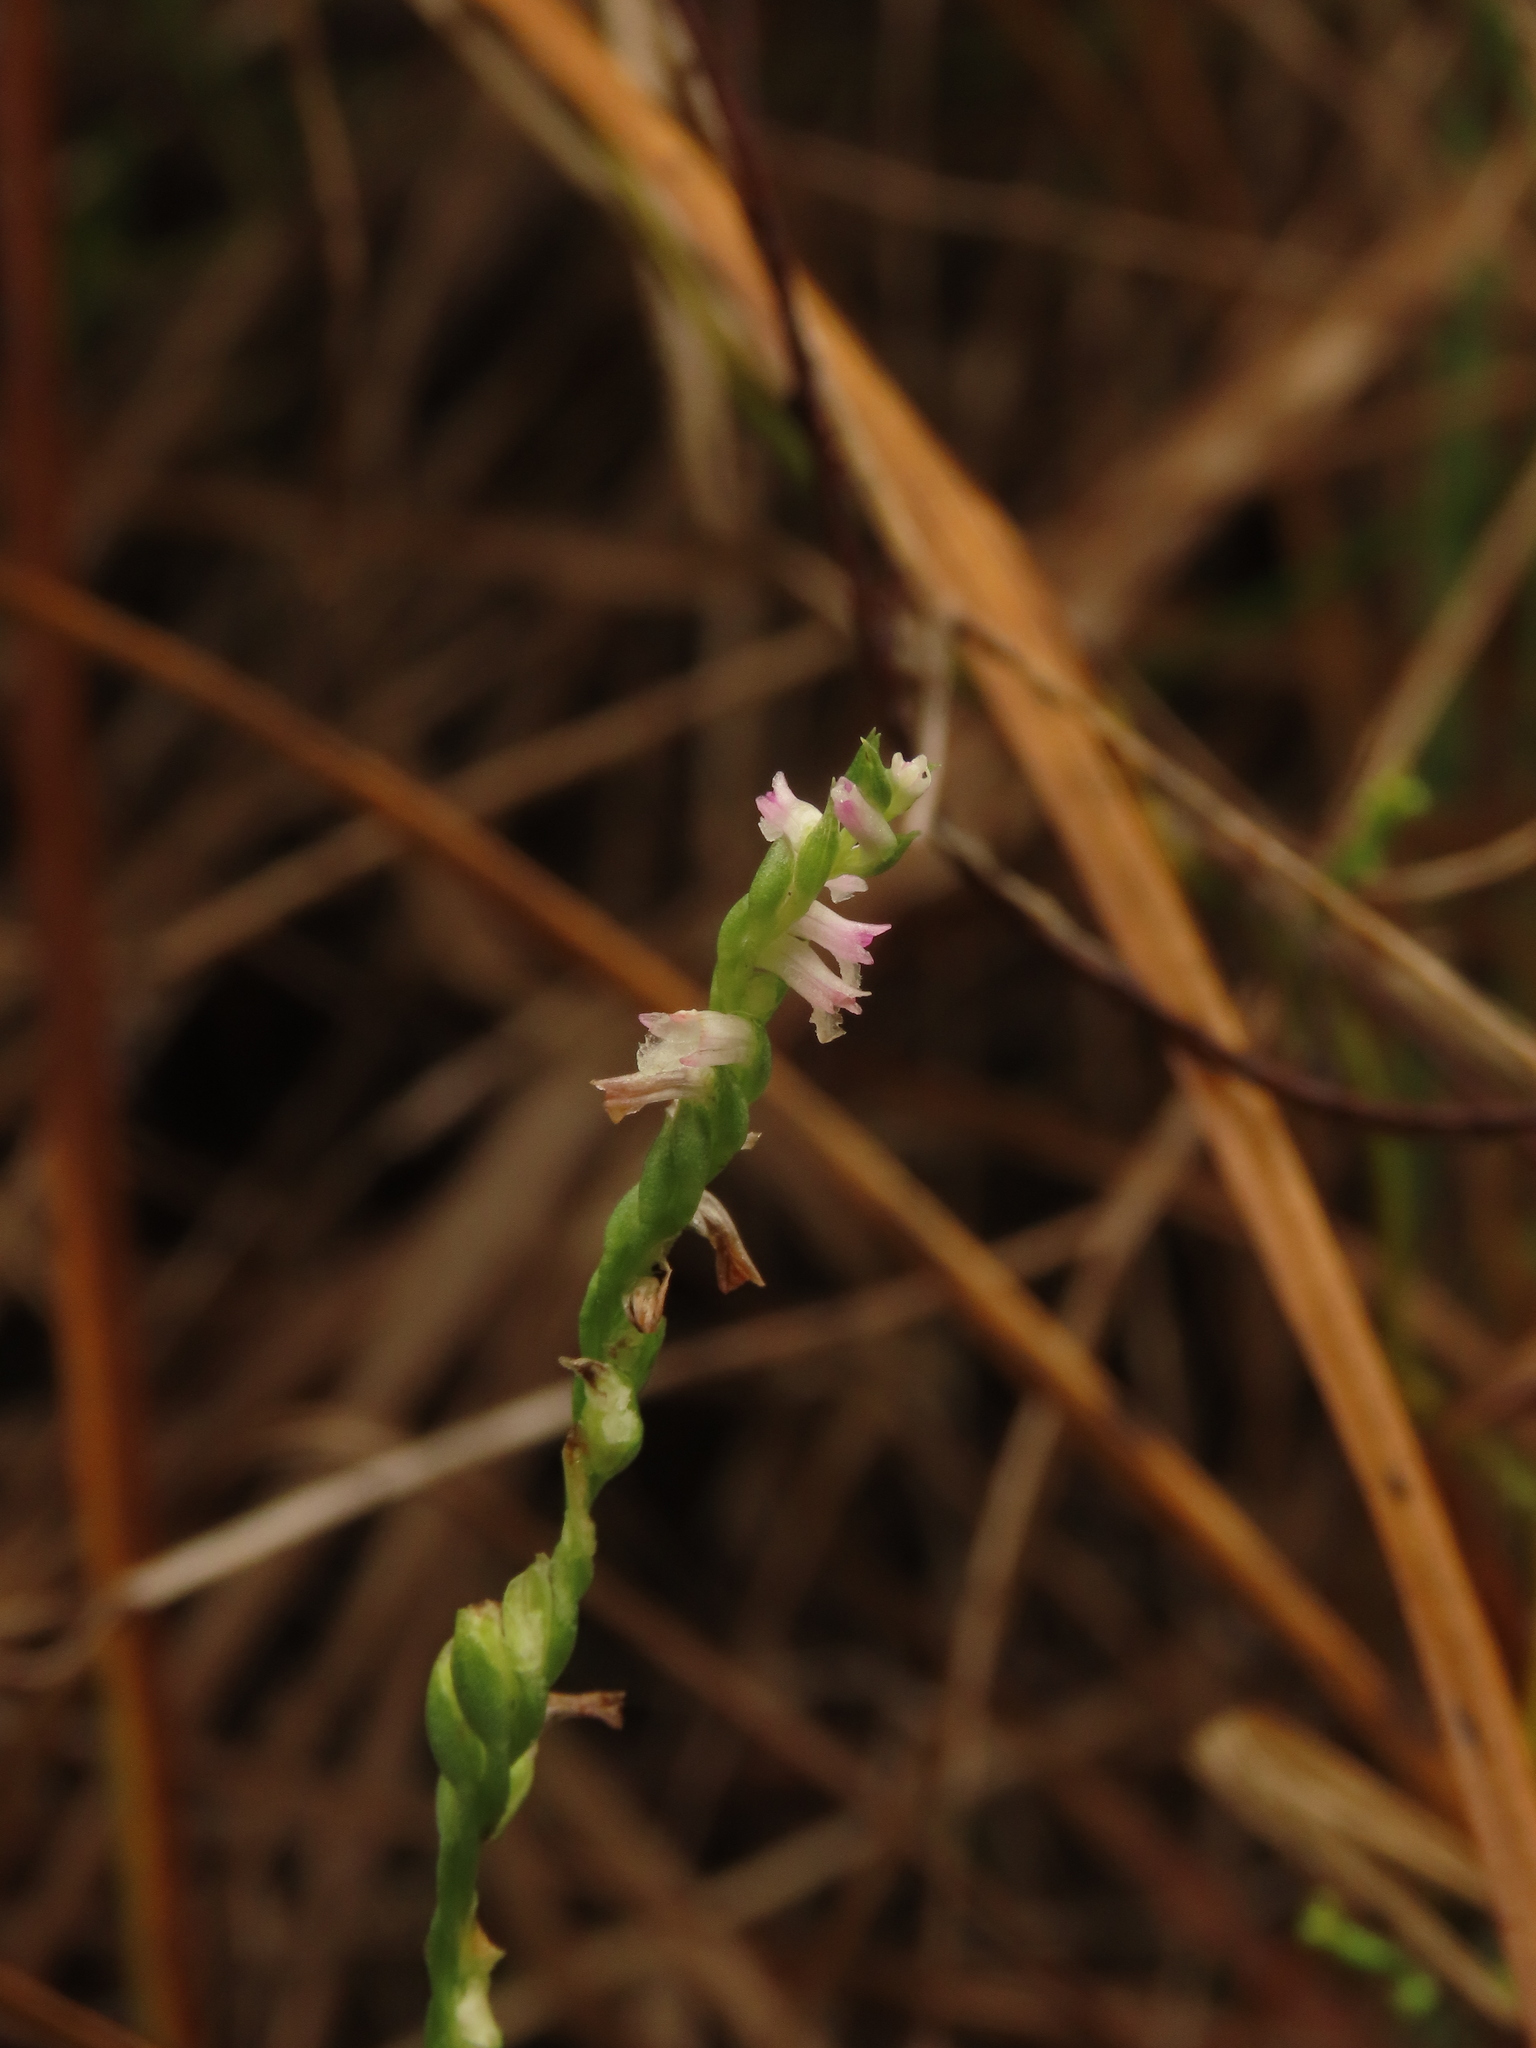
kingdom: Plantae
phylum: Tracheophyta
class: Liliopsida
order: Asparagales
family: Orchidaceae
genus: Spiranthes
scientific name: Spiranthes sinensis
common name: Chinese spiranthes
